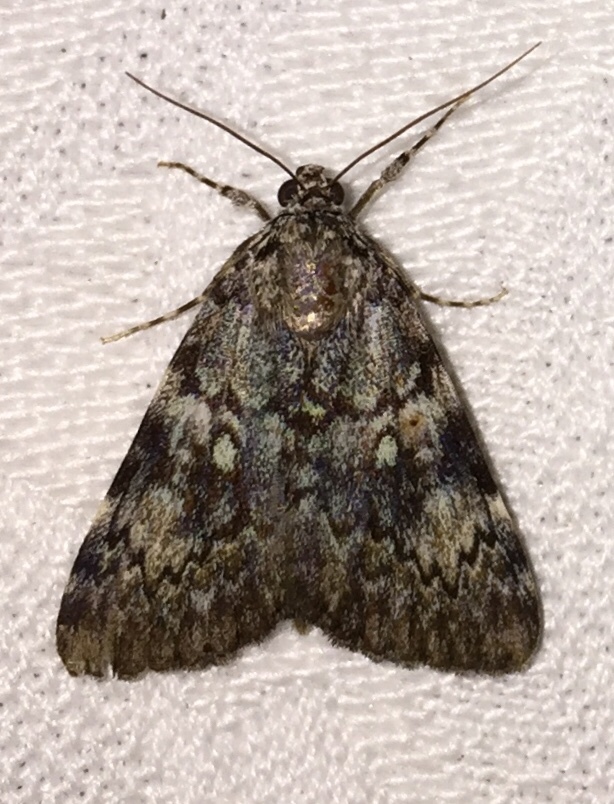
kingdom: Animalia
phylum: Arthropoda
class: Insecta
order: Lepidoptera
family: Erebidae
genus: Catocala
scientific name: Catocala lineella
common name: Little lined underwing
